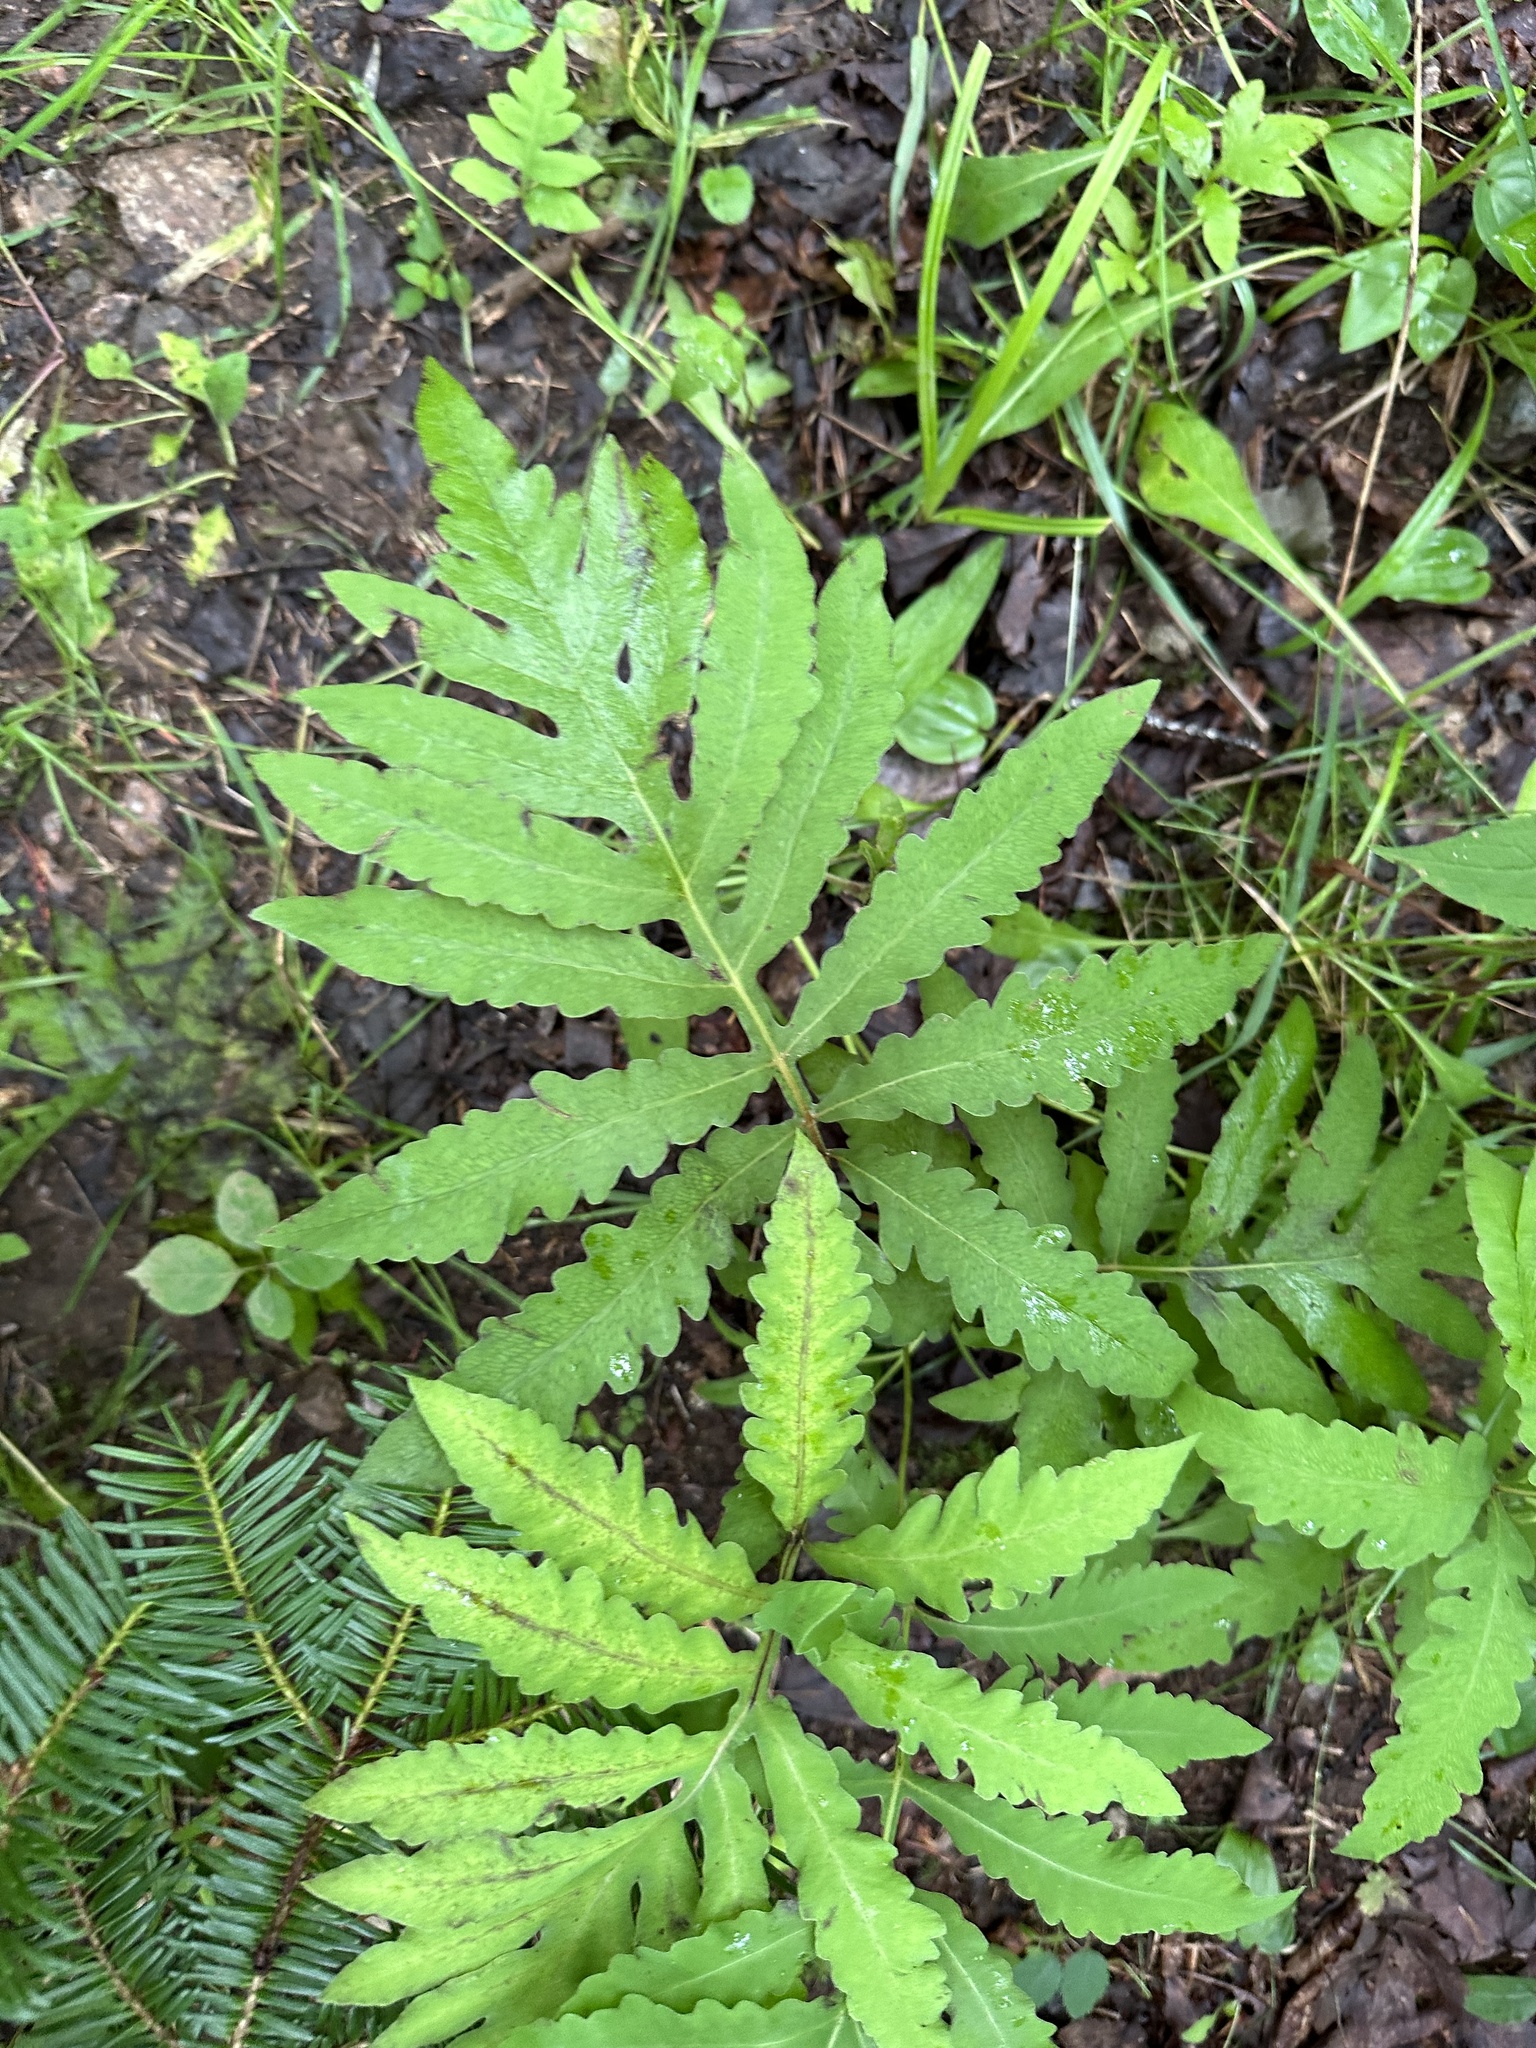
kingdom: Plantae
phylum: Tracheophyta
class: Polypodiopsida
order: Polypodiales
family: Onocleaceae
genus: Onoclea
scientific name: Onoclea sensibilis
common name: Sensitive fern
